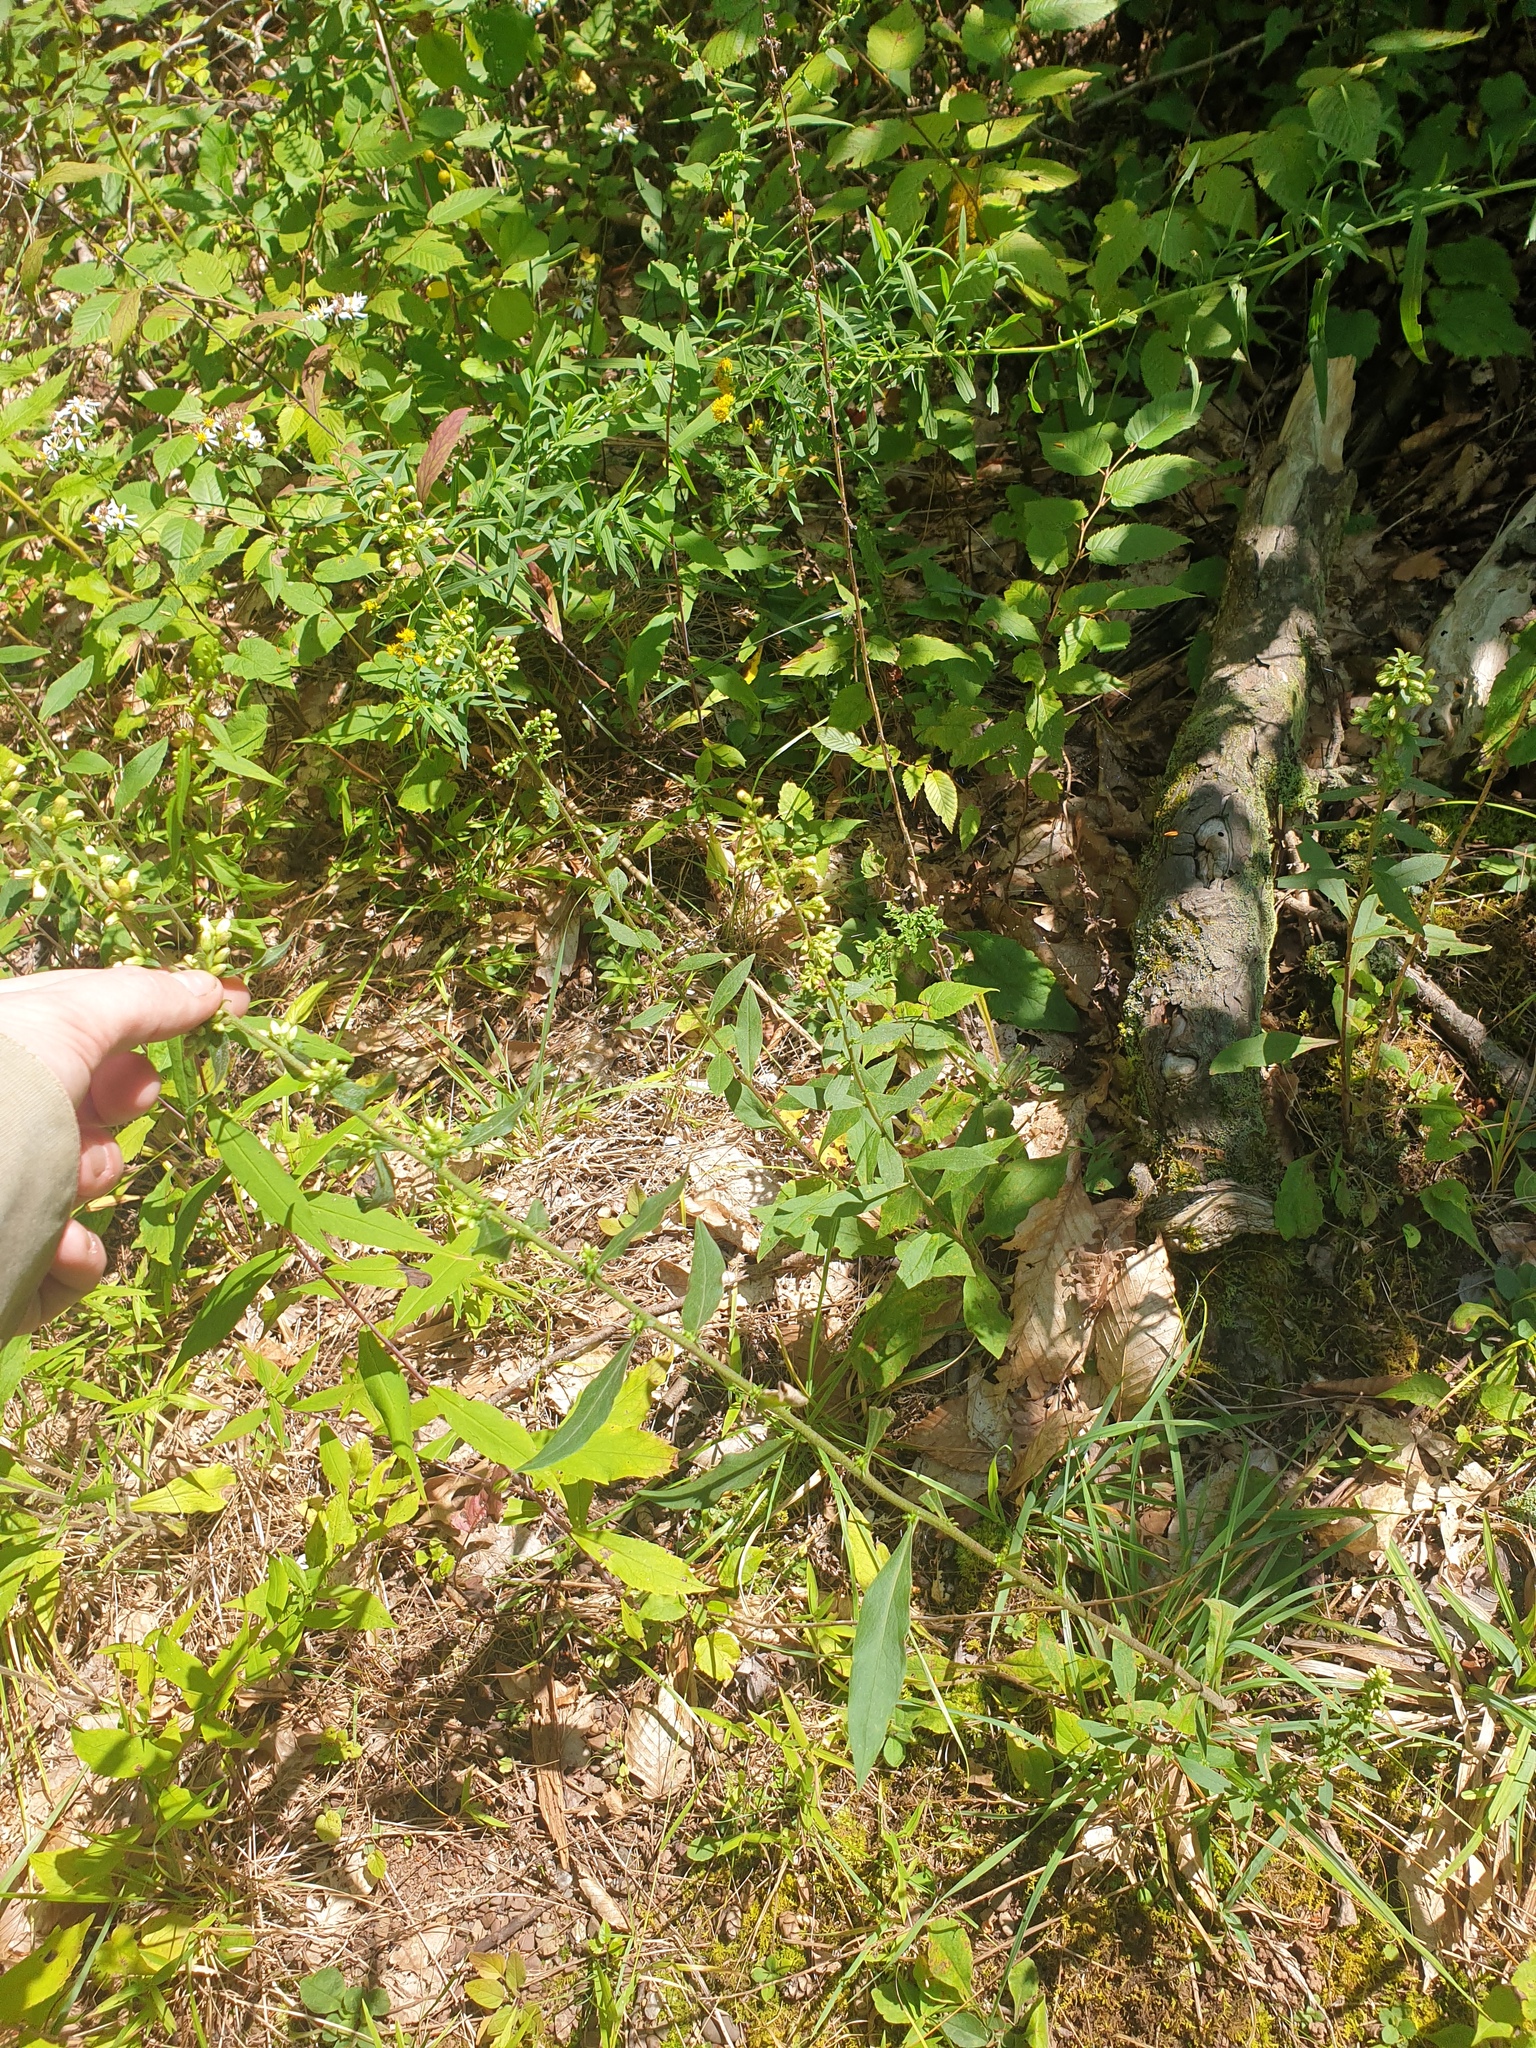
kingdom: Plantae
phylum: Tracheophyta
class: Magnoliopsida
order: Asterales
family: Asteraceae
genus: Solidago
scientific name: Solidago bicolor
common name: Silverrod
